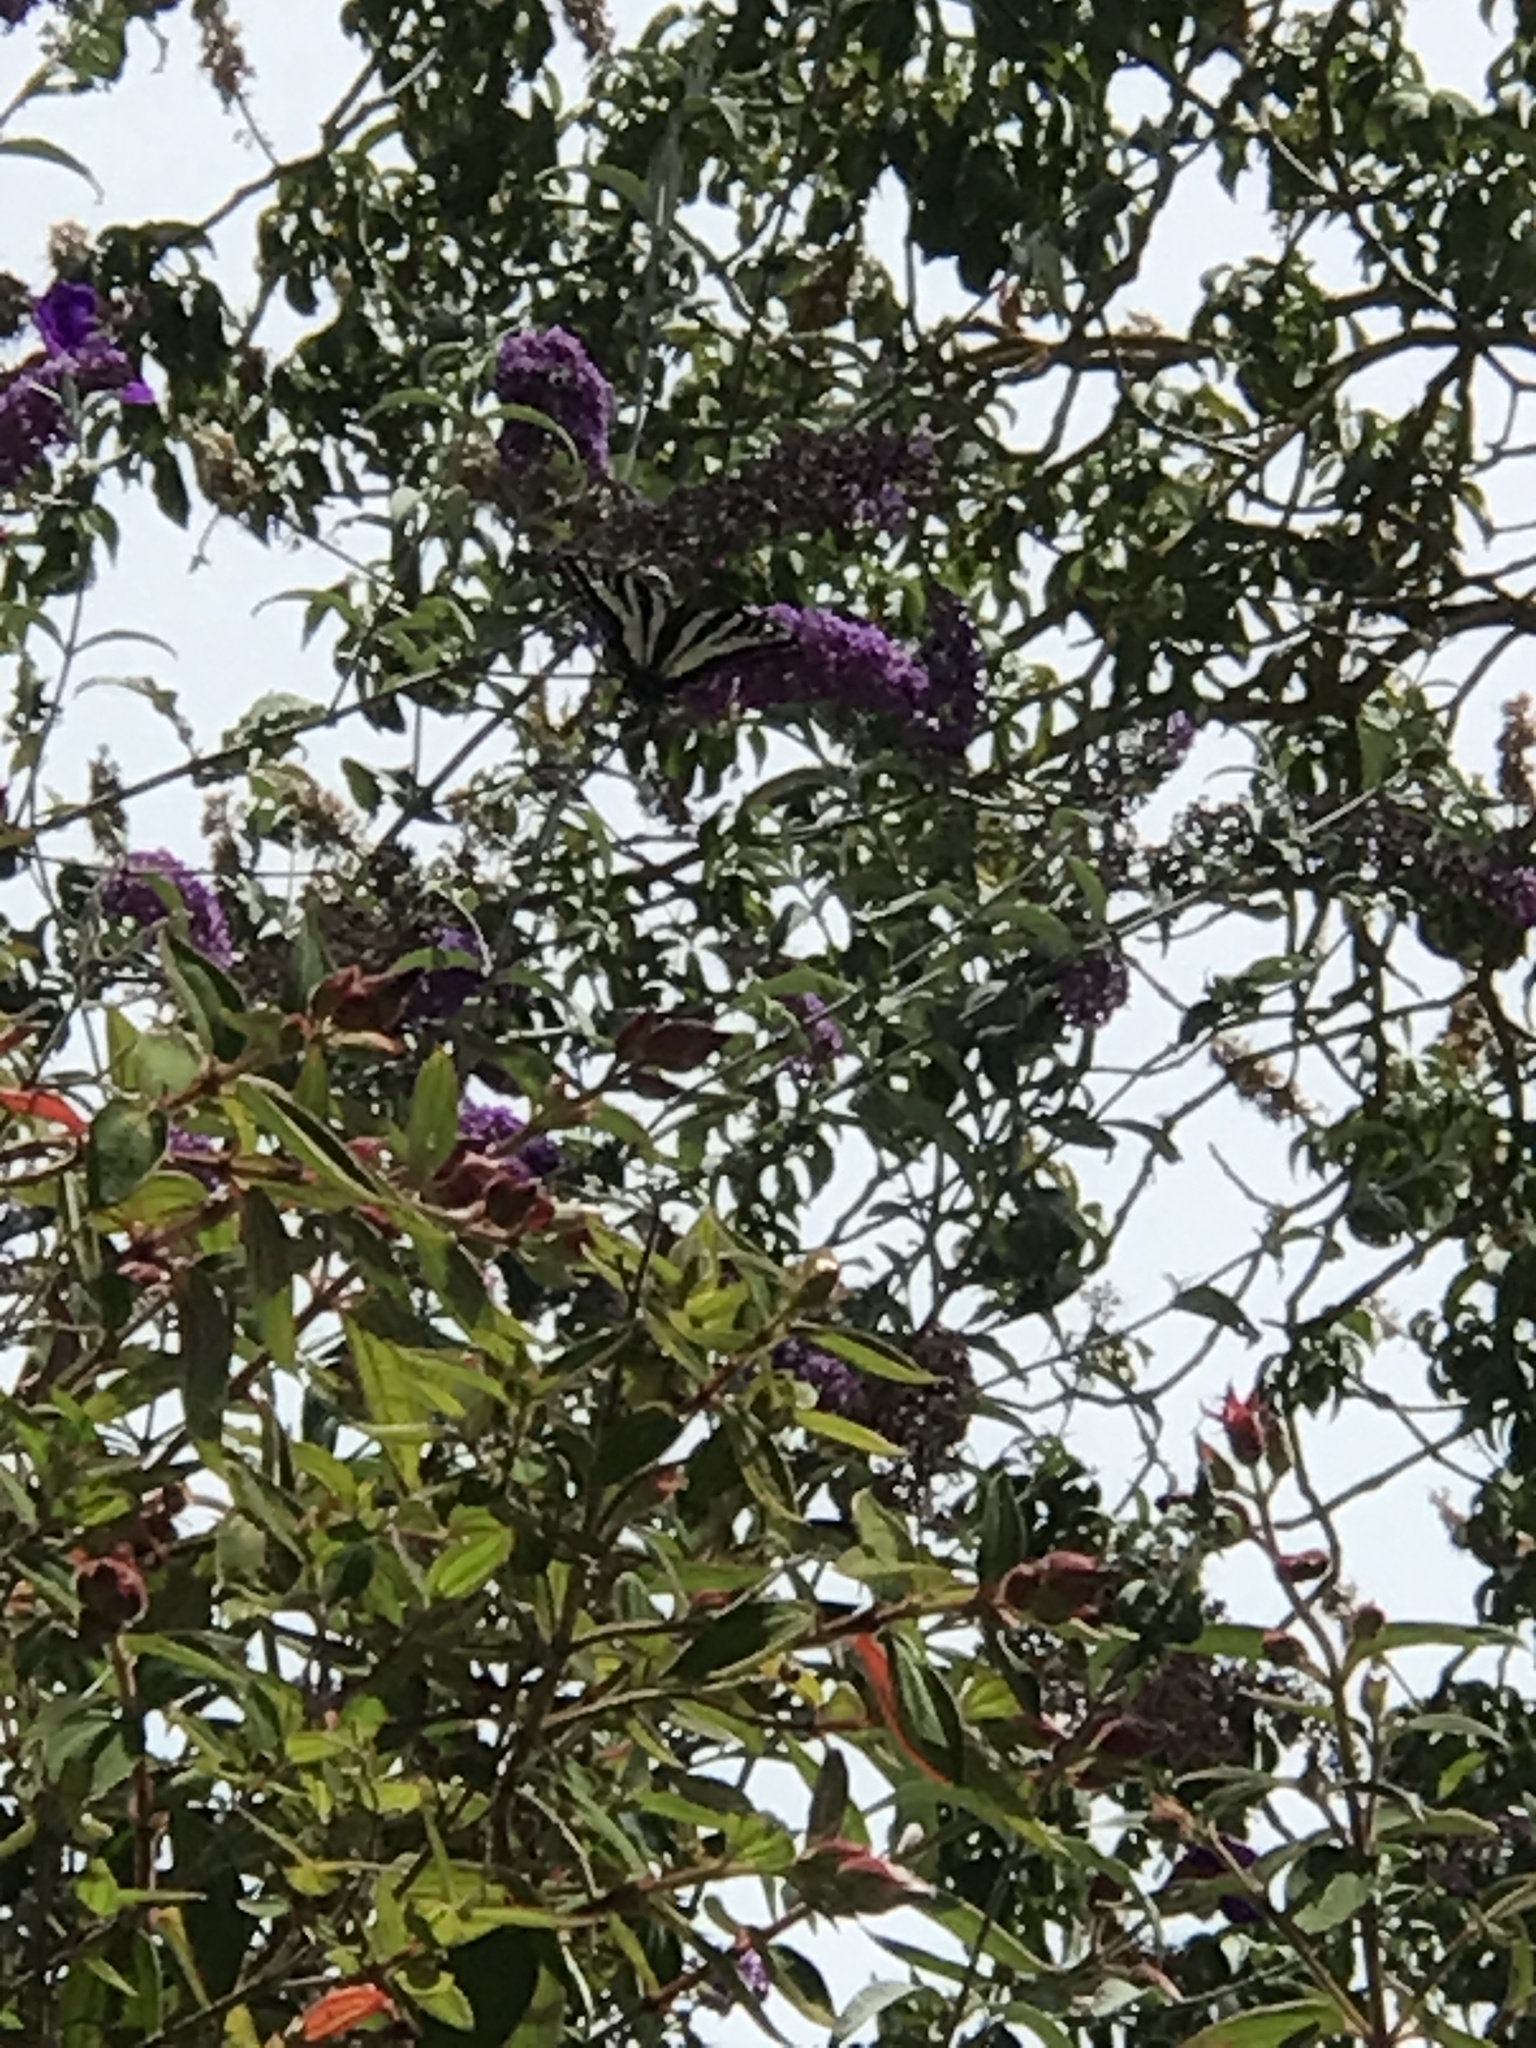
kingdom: Animalia
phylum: Arthropoda
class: Insecta
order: Lepidoptera
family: Papilionidae
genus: Papilio
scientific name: Papilio rutulus
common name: Western tiger swallowtail
